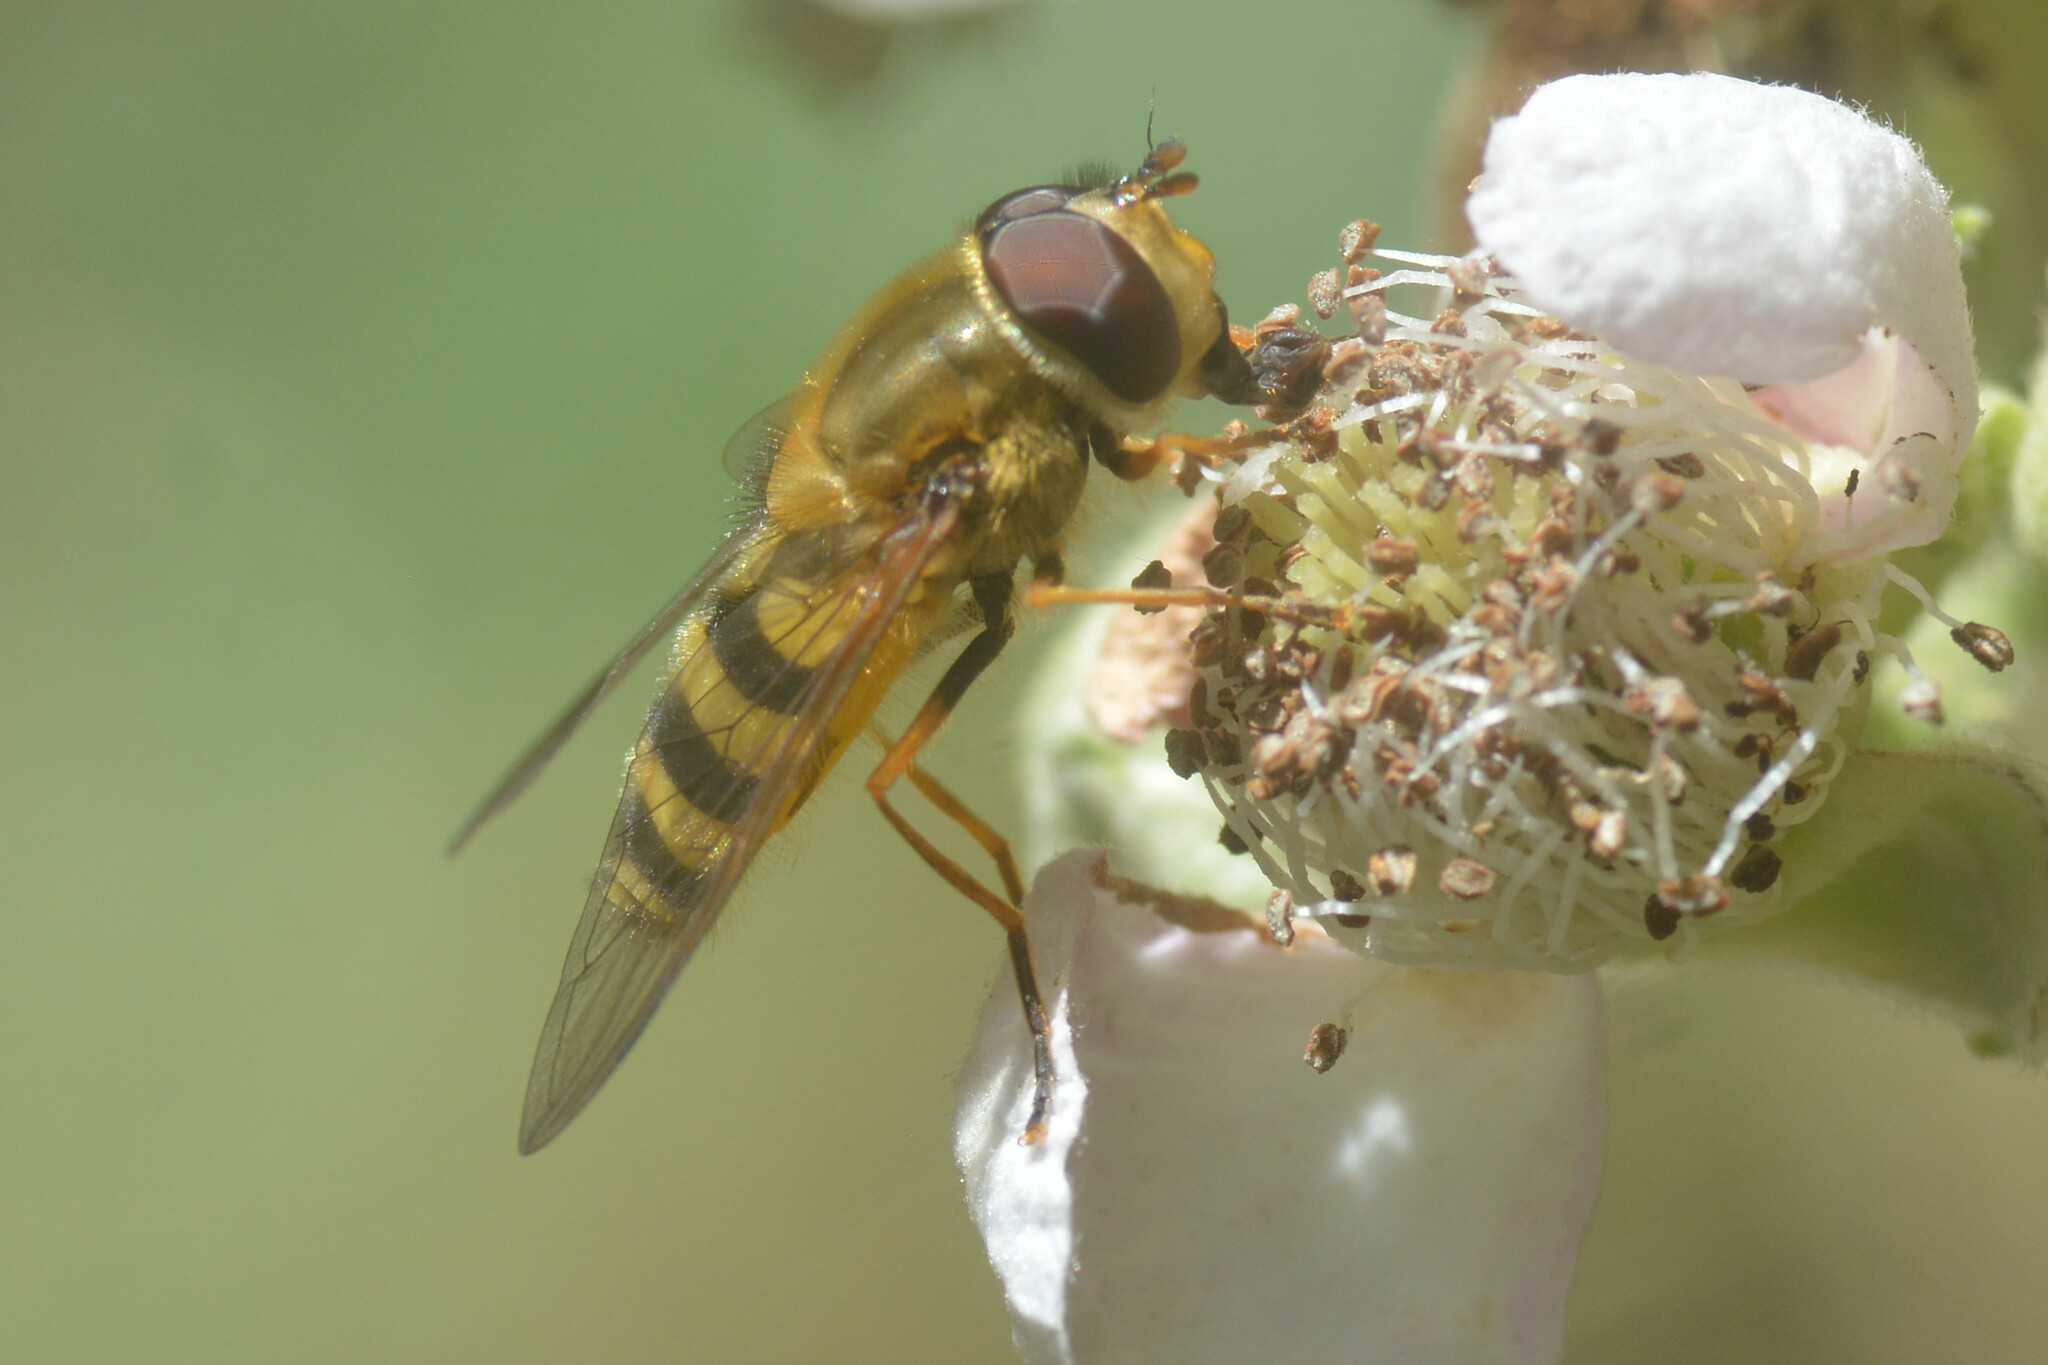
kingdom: Animalia
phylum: Arthropoda
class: Insecta
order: Diptera
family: Syrphidae
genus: Syrphus
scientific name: Syrphus
